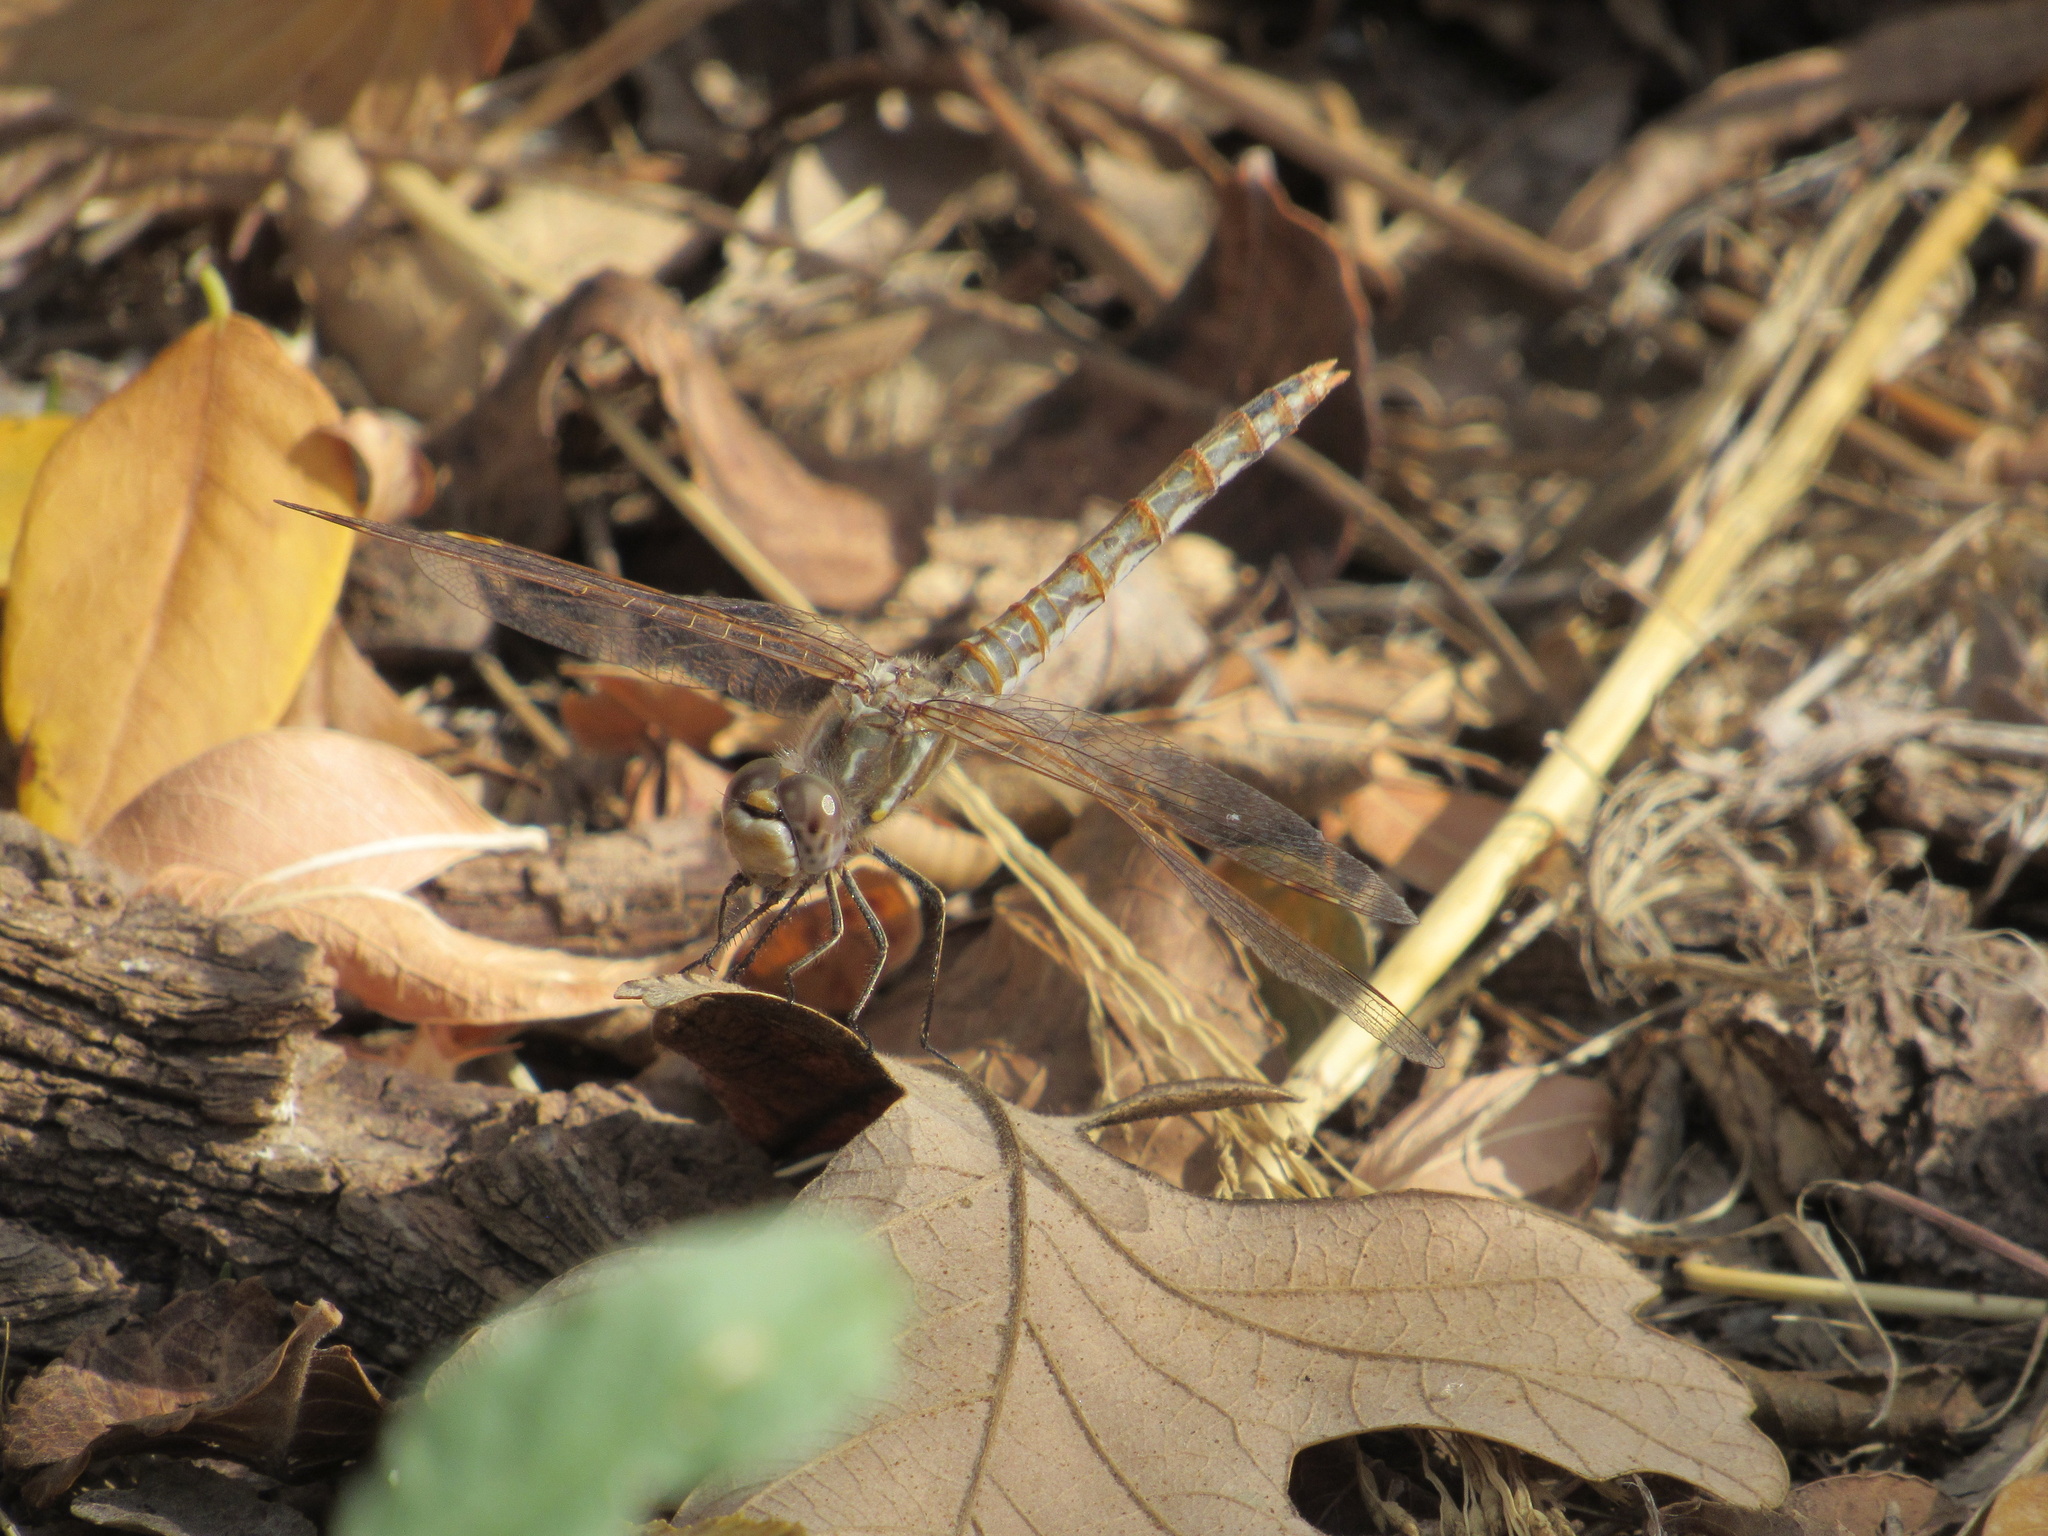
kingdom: Animalia
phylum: Arthropoda
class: Insecta
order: Odonata
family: Libellulidae
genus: Sympetrum
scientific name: Sympetrum corruptum
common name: Variegated meadowhawk
